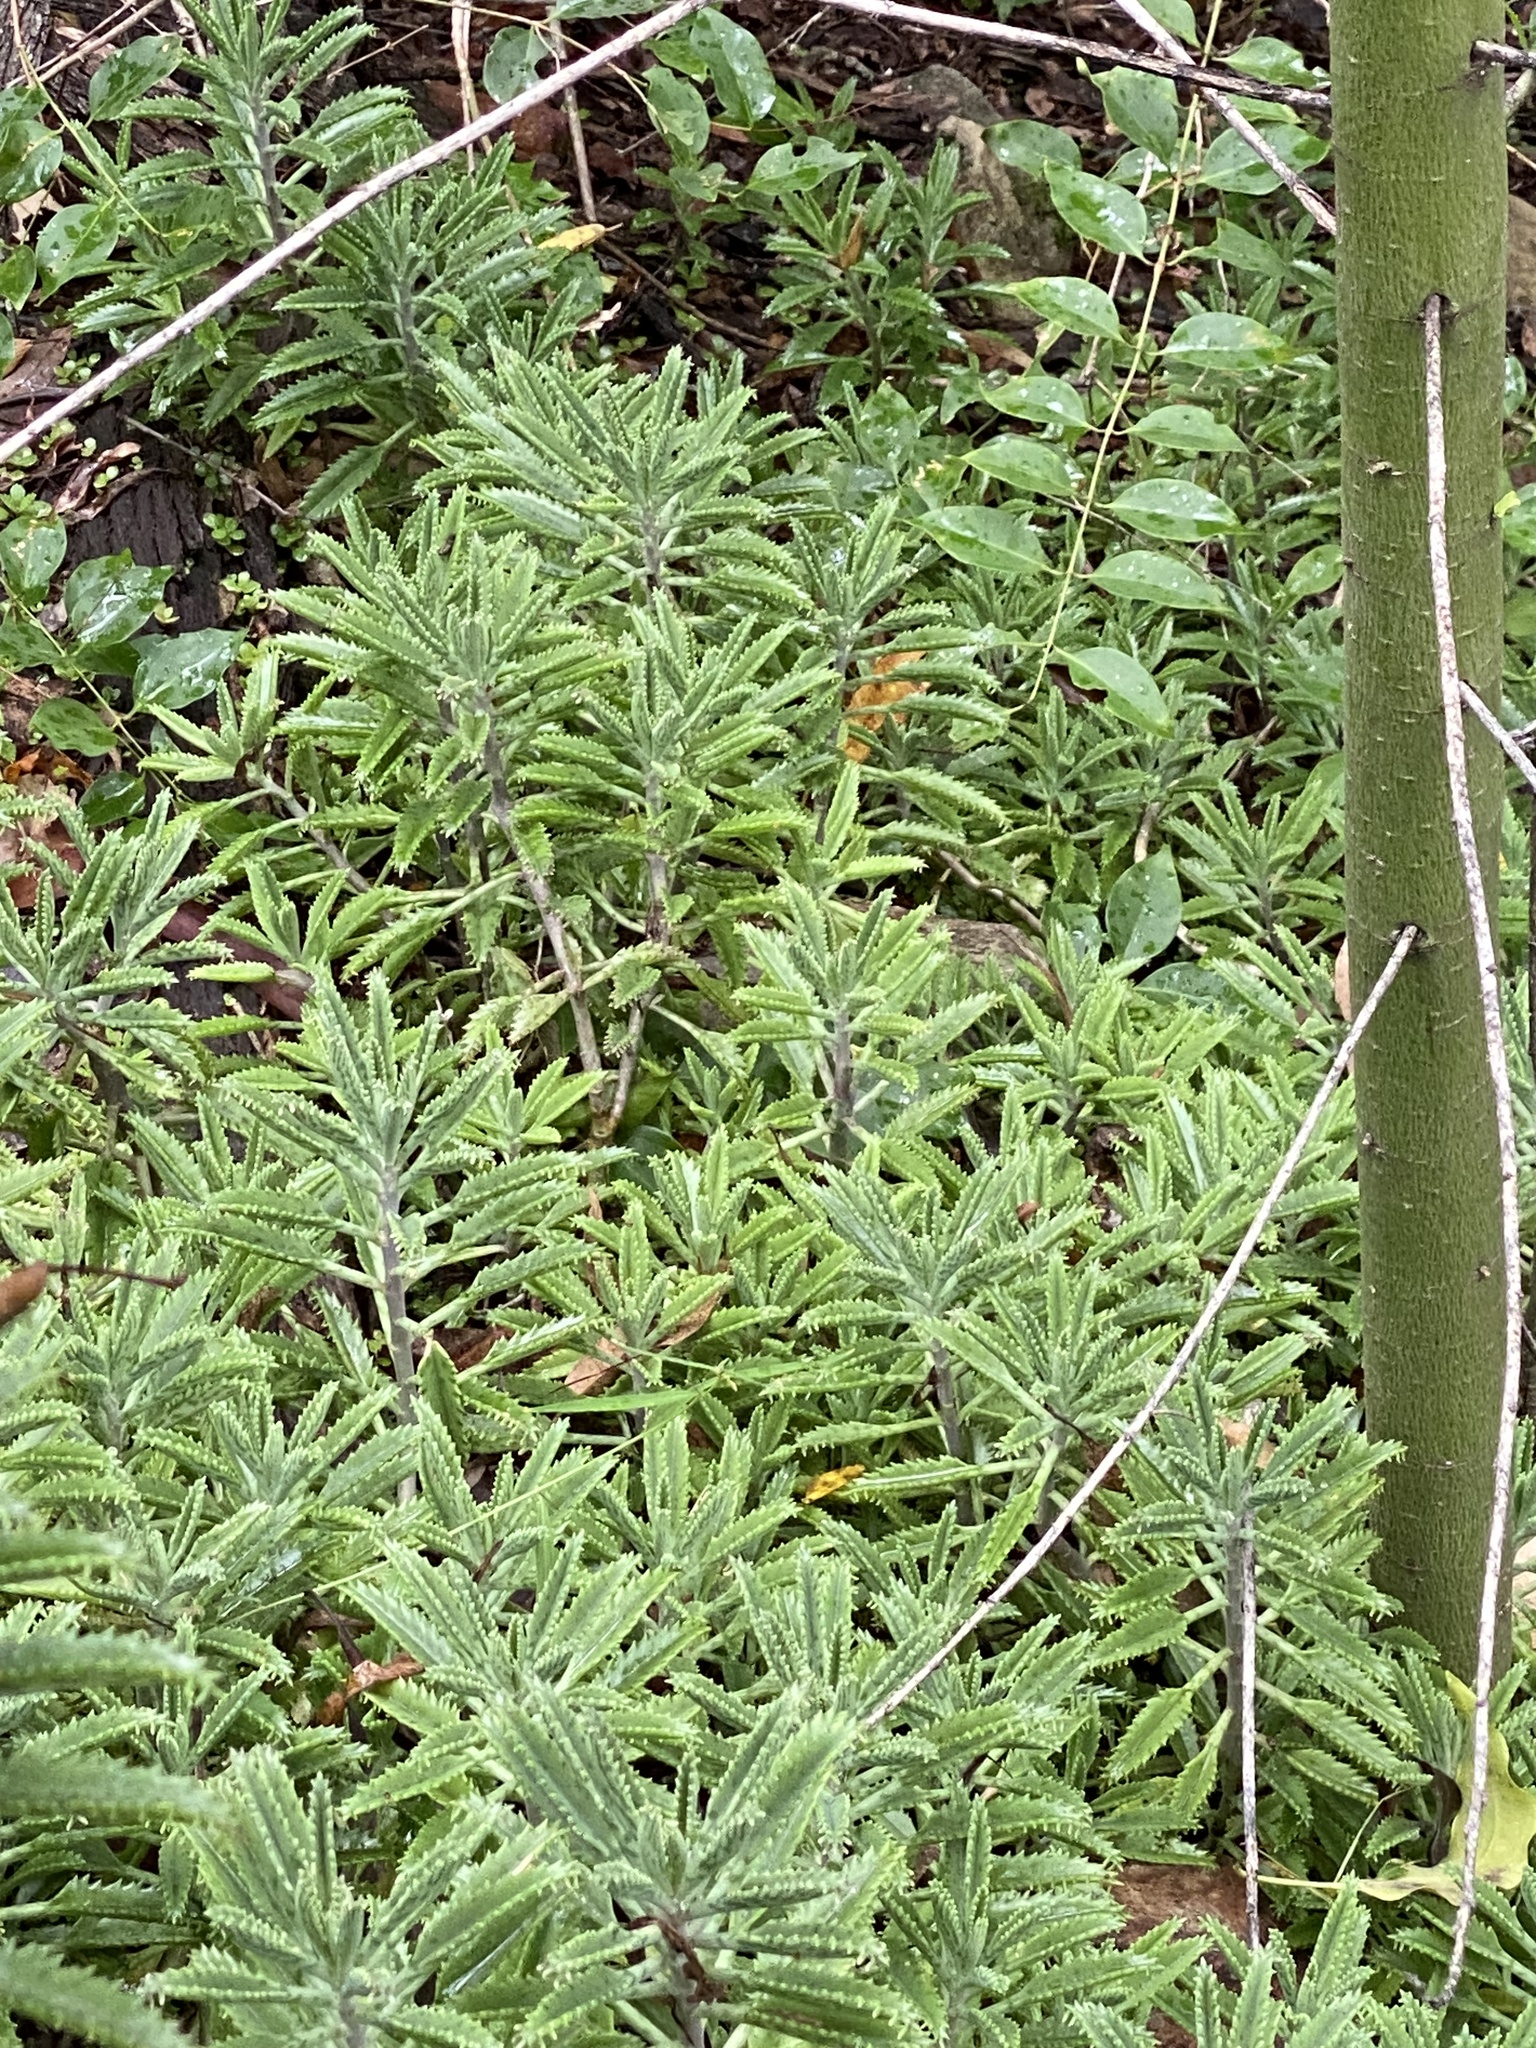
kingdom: Plantae
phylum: Tracheophyta
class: Magnoliopsida
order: Saxifragales
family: Crassulaceae
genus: Kalanchoe
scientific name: Kalanchoe houghtonii
